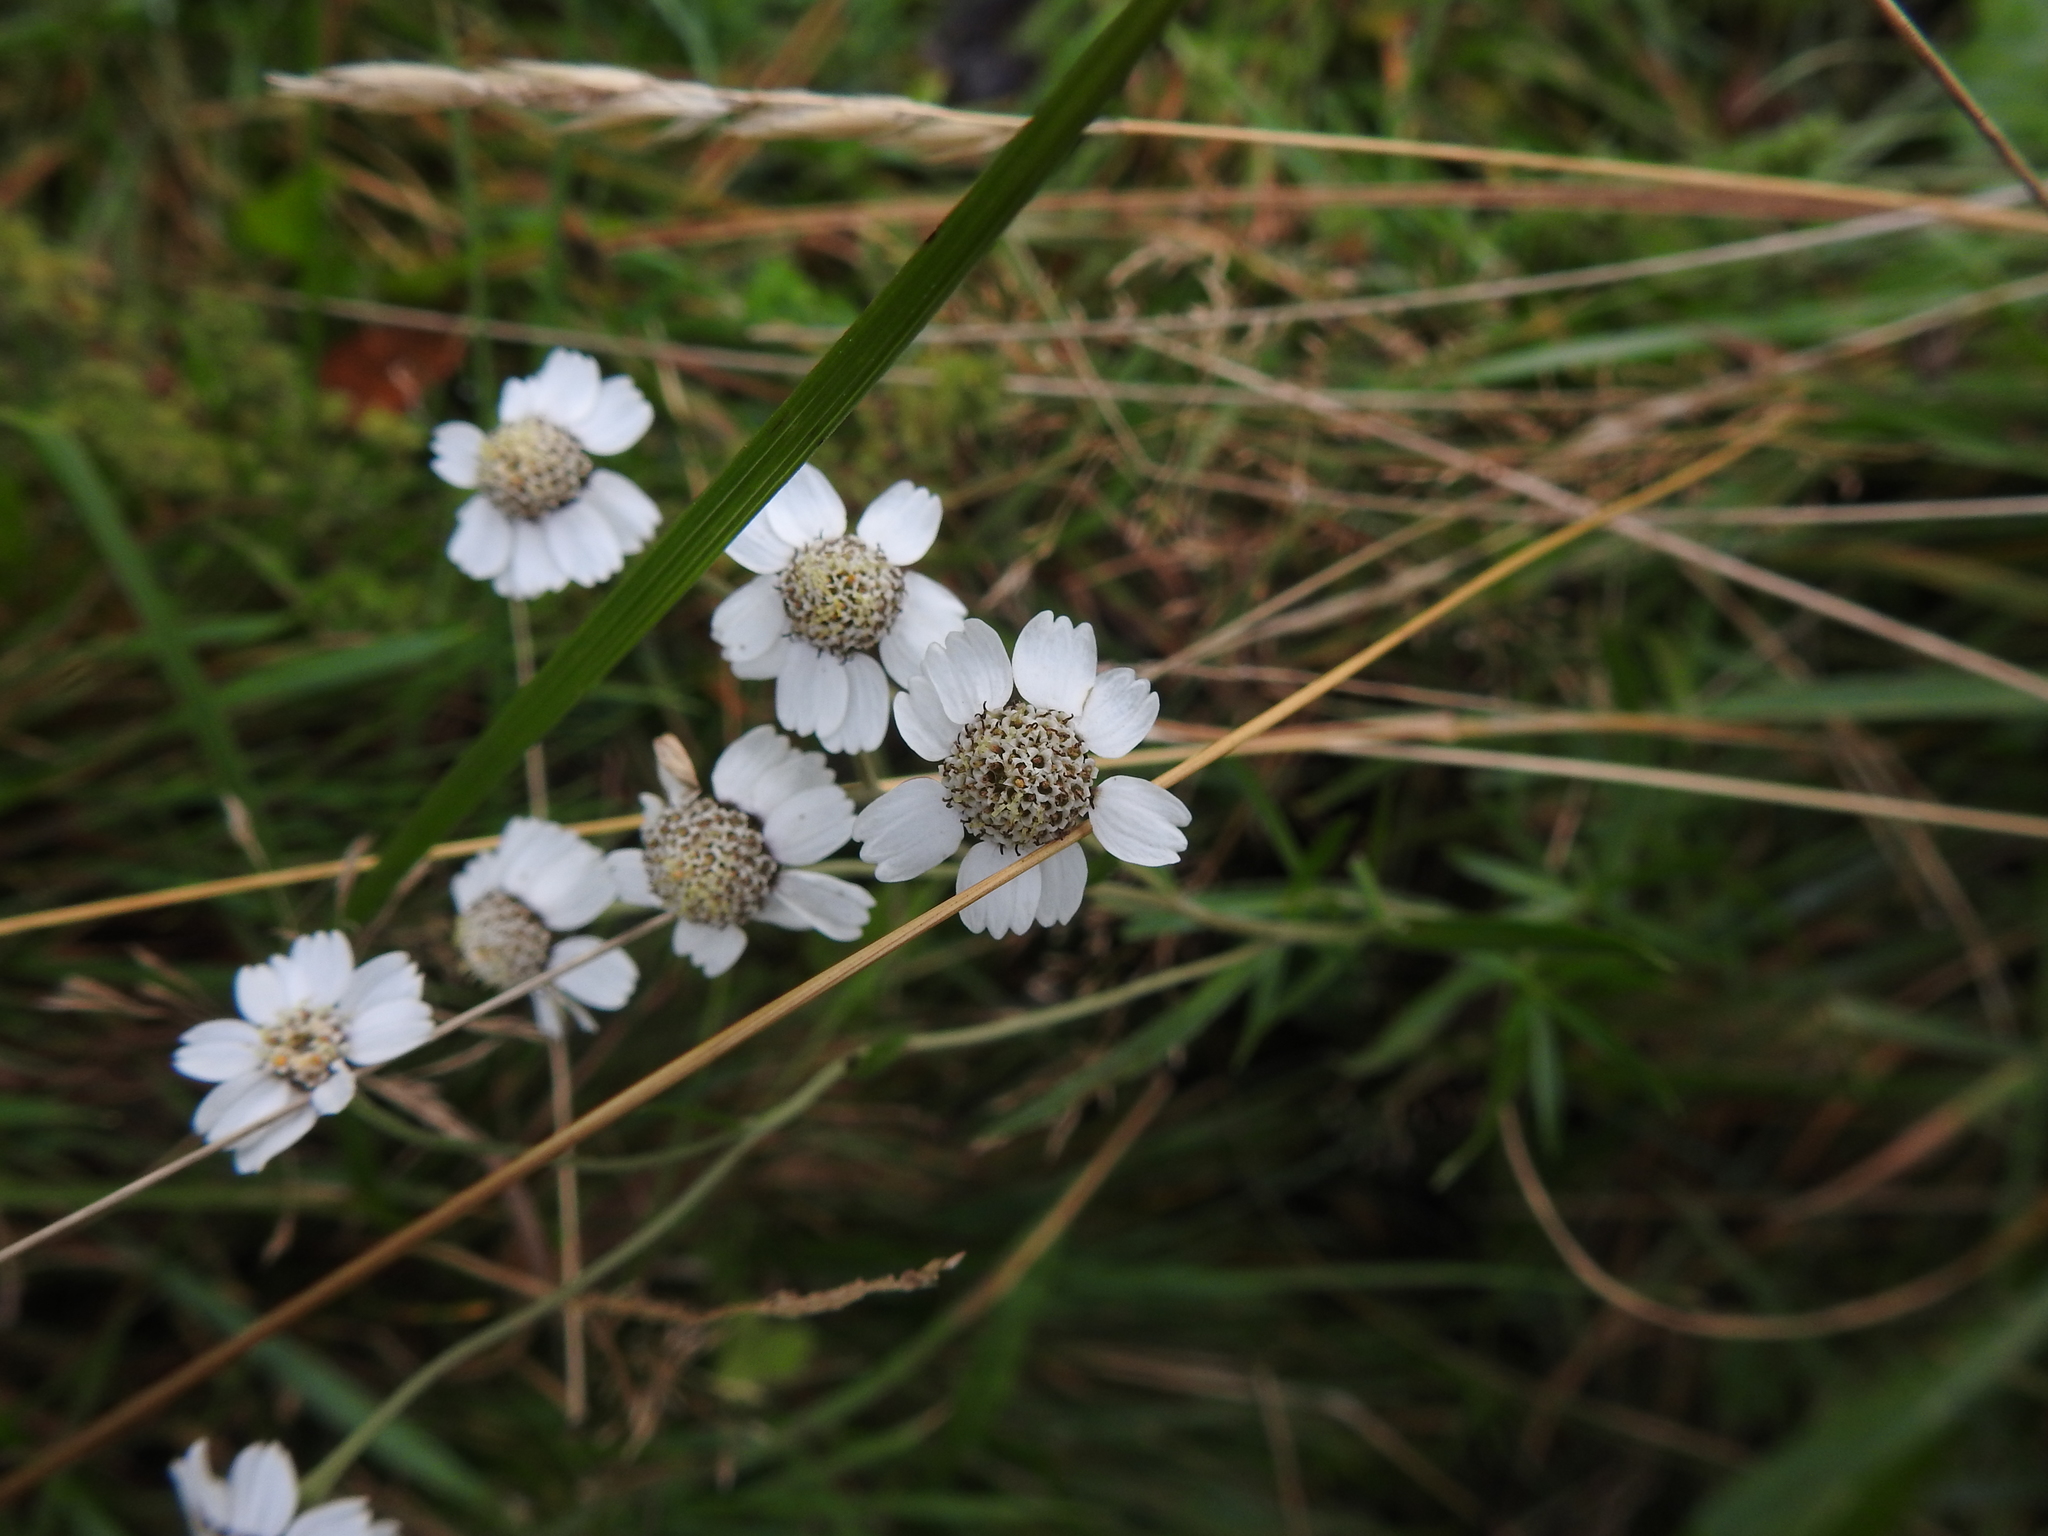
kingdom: Plantae
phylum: Tracheophyta
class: Magnoliopsida
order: Asterales
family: Asteraceae
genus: Achillea
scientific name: Achillea ptarmica
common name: Sneezeweed
